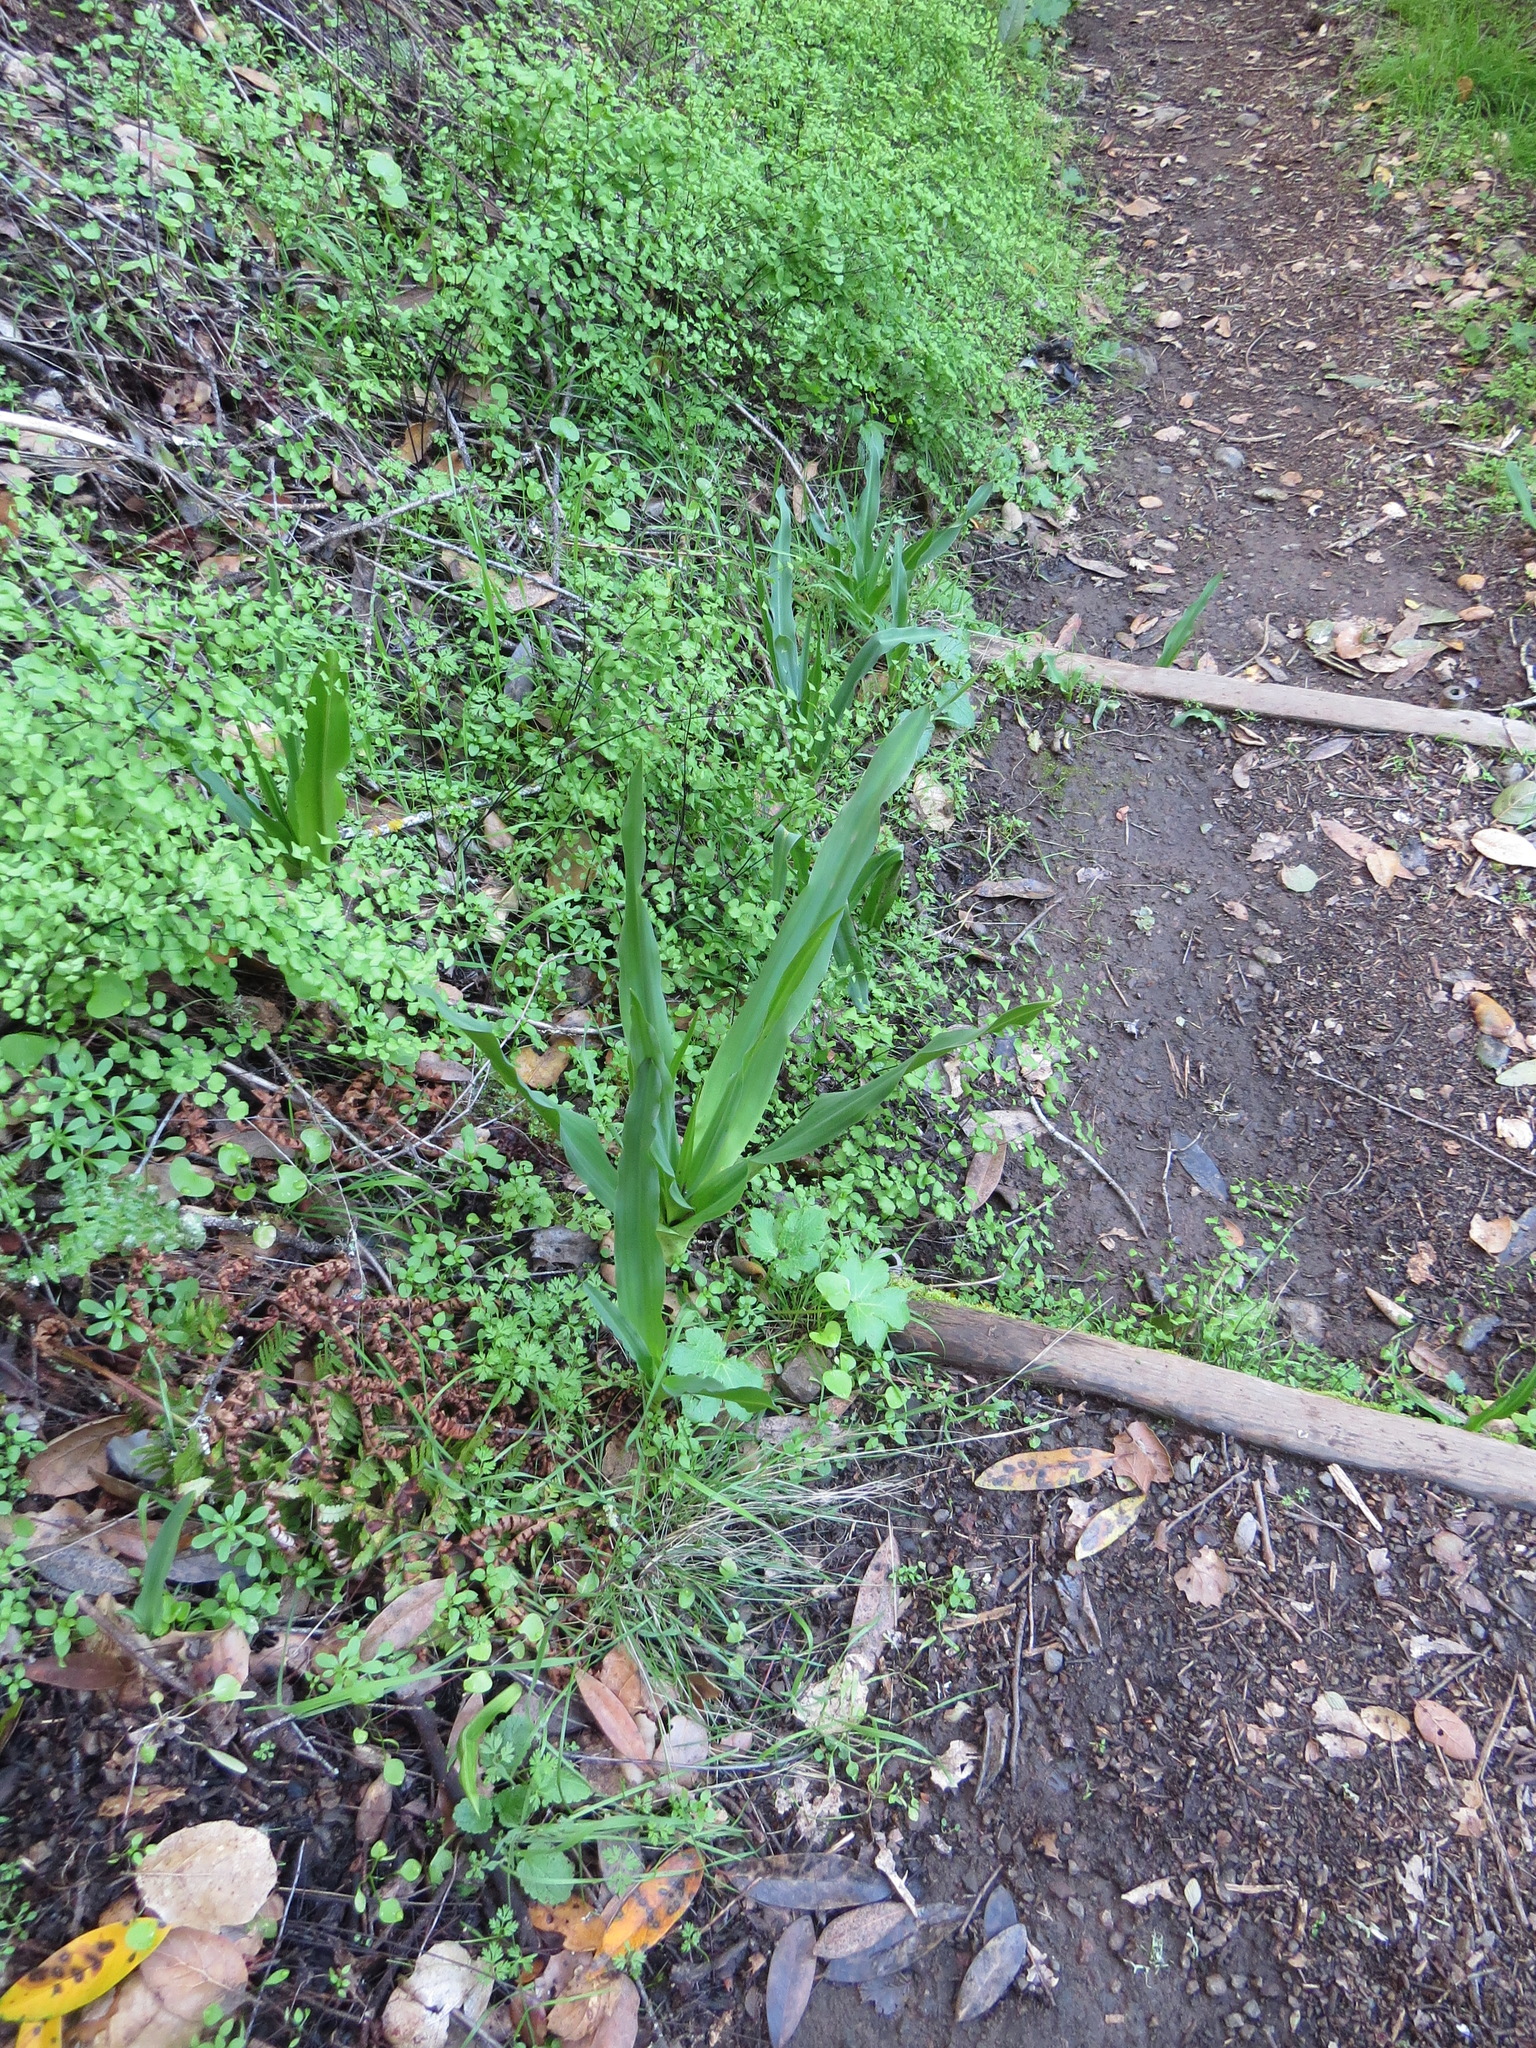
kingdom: Plantae
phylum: Tracheophyta
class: Liliopsida
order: Asparagales
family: Asparagaceae
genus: Chlorogalum
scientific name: Chlorogalum pomeridianum
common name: Amole
